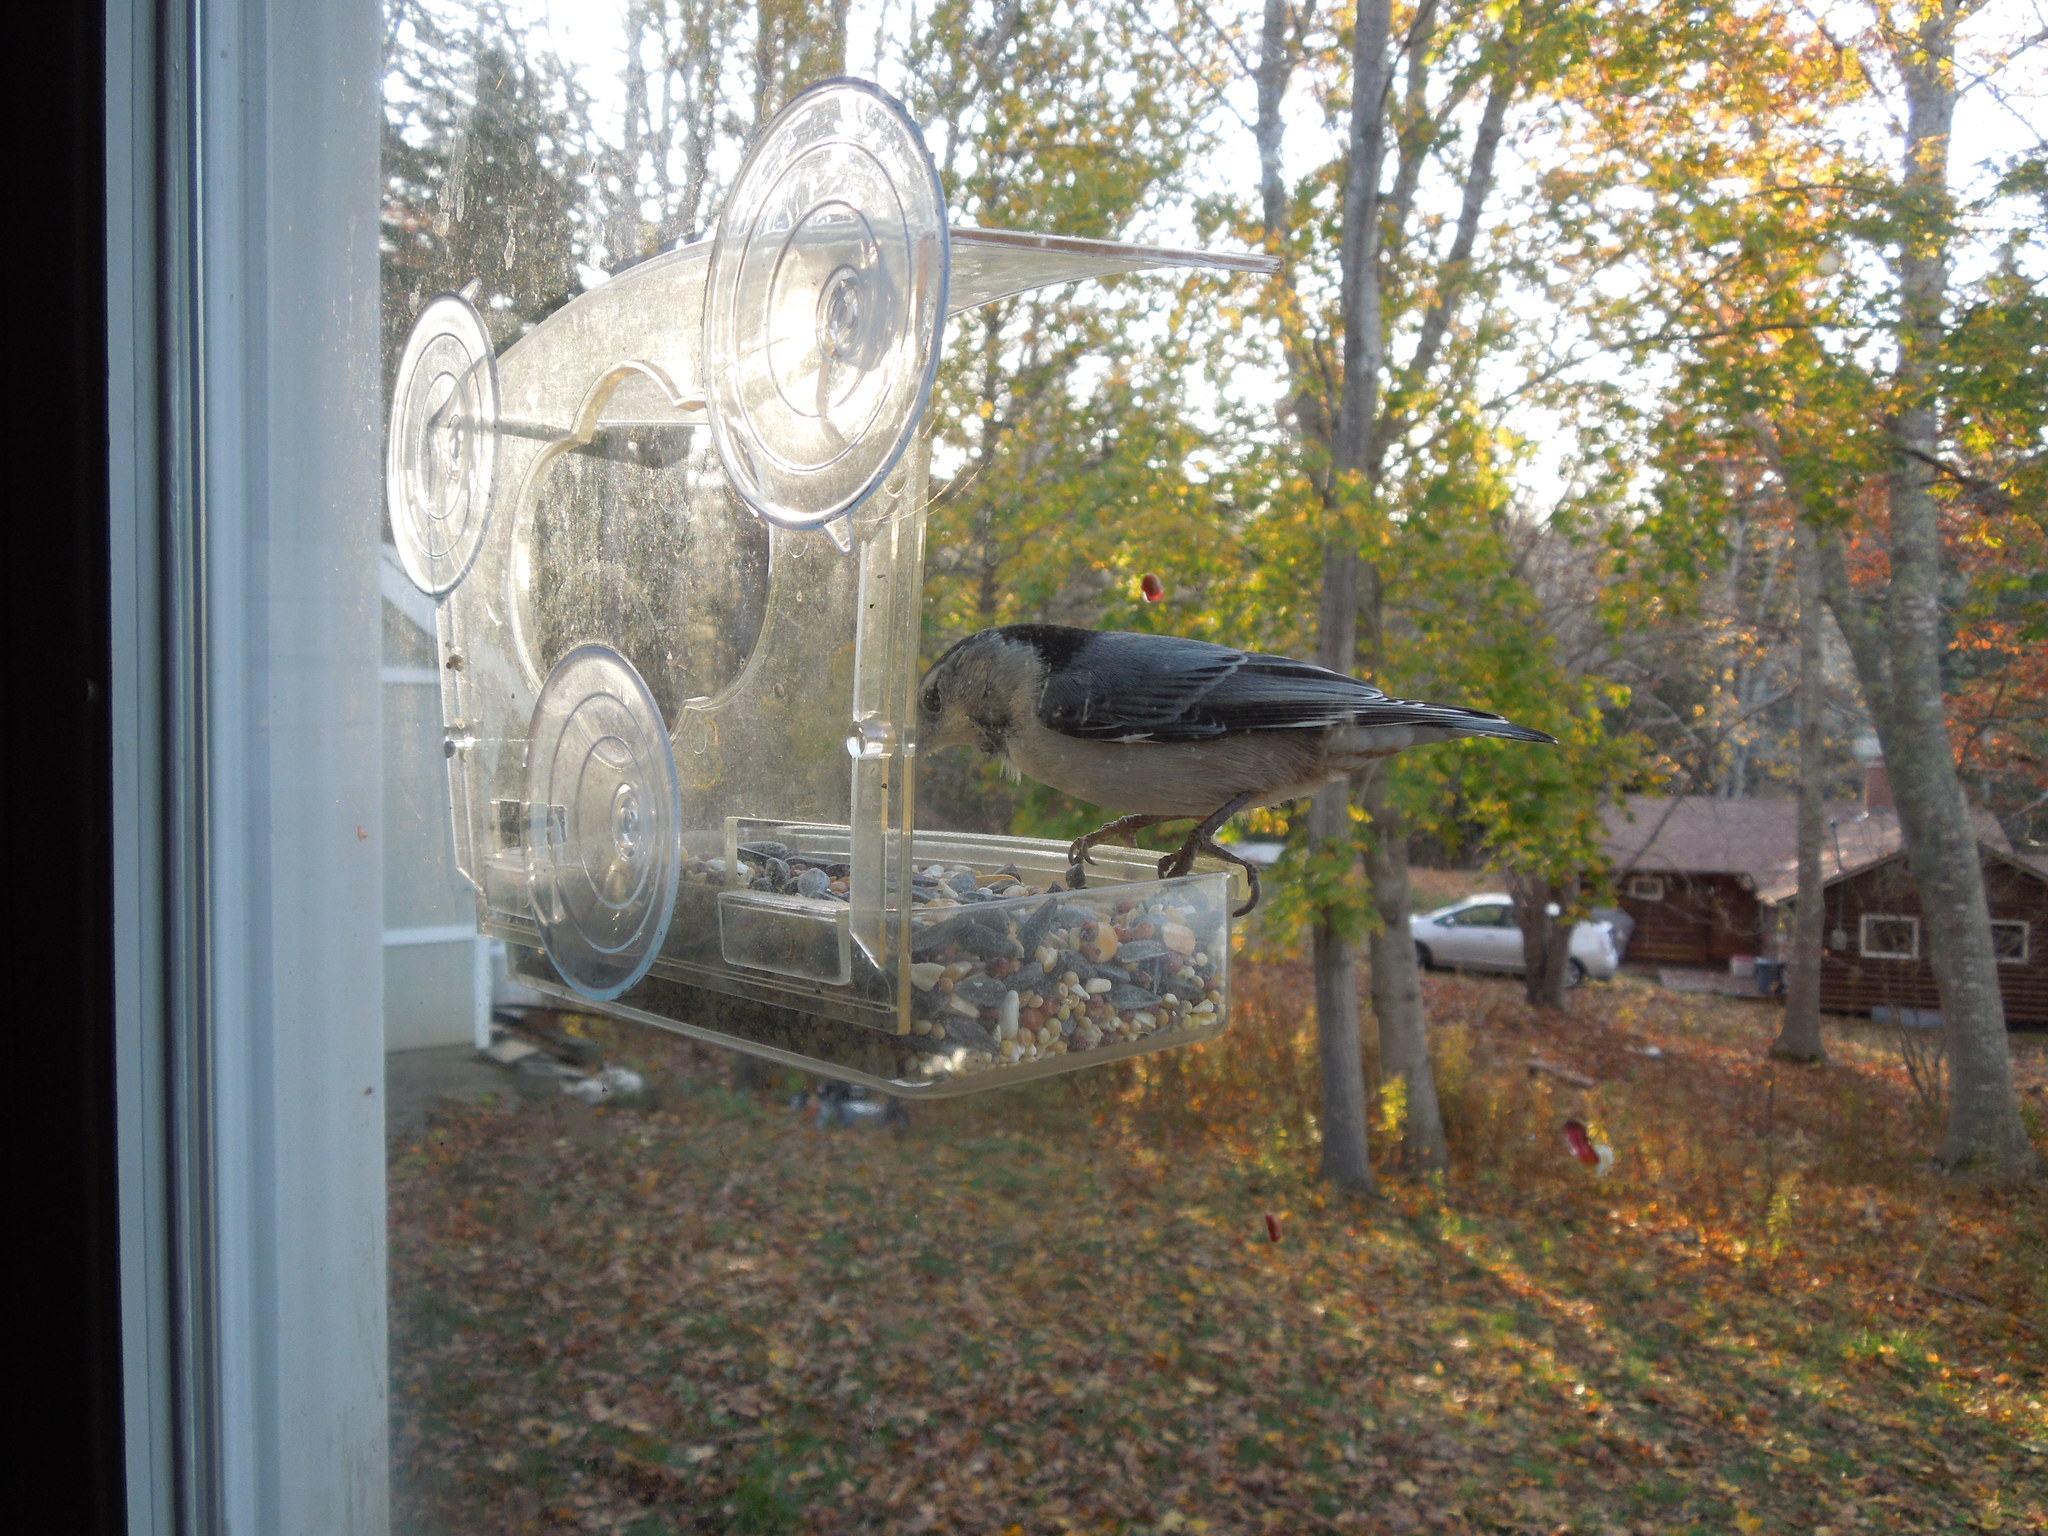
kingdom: Animalia
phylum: Chordata
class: Aves
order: Passeriformes
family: Sittidae
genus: Sitta
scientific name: Sitta carolinensis
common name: White-breasted nuthatch
